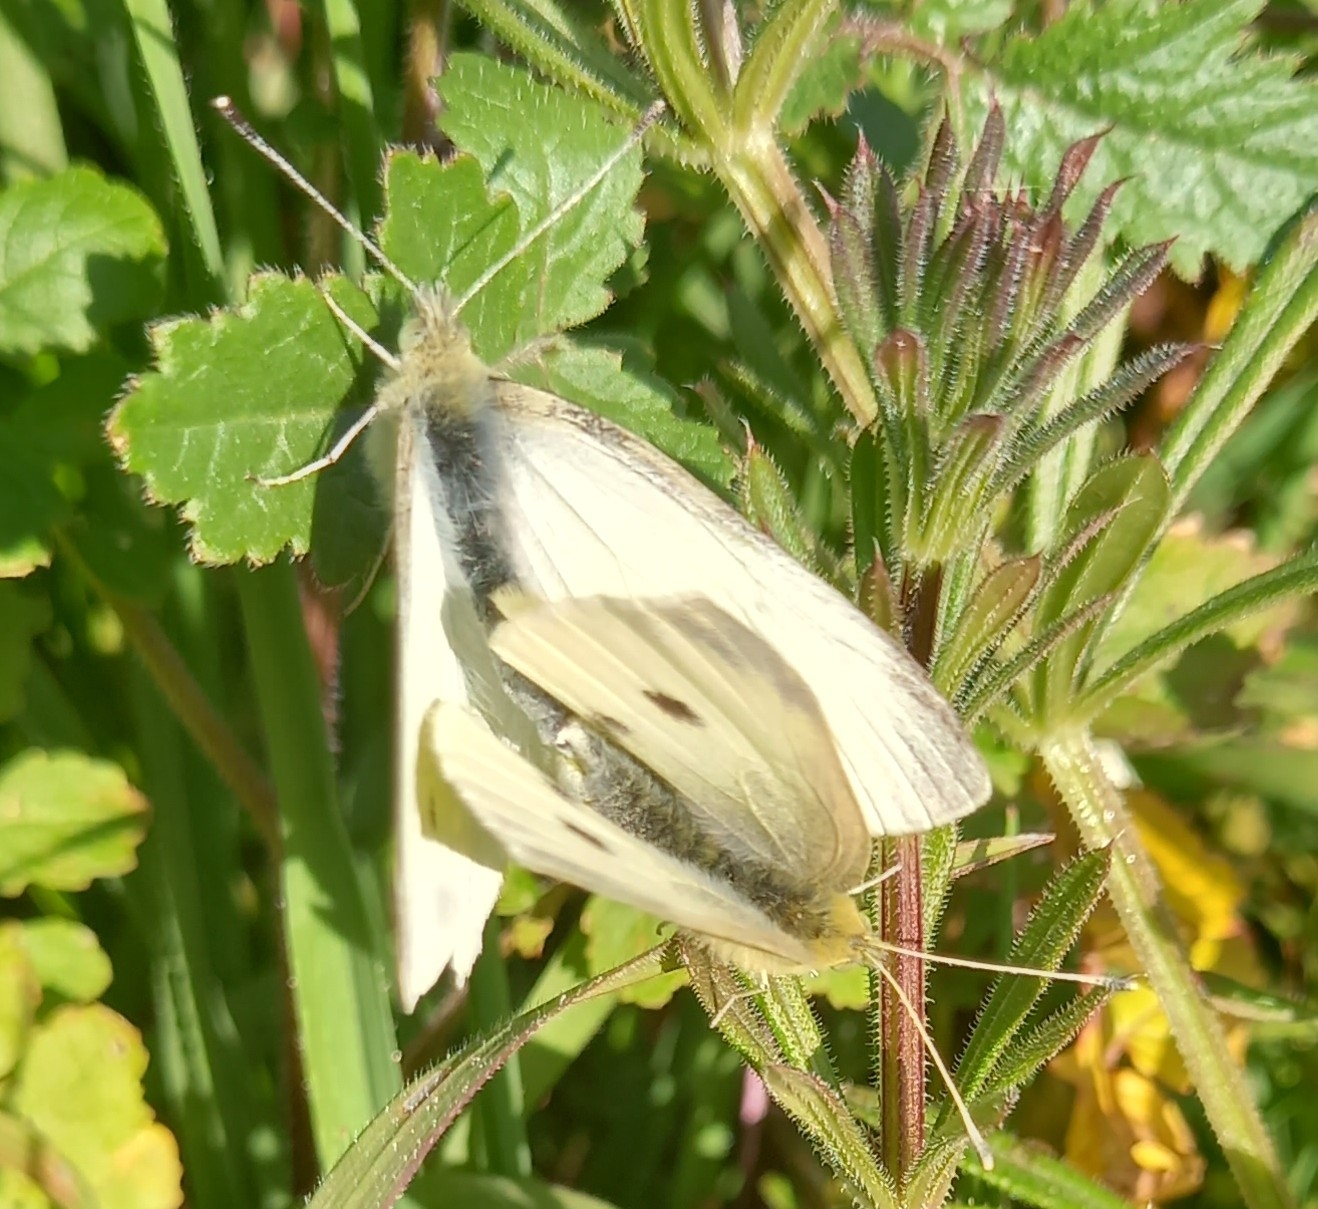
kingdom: Animalia
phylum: Arthropoda
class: Insecta
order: Lepidoptera
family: Pieridae
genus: Pieris
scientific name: Pieris rapae
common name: Small white
